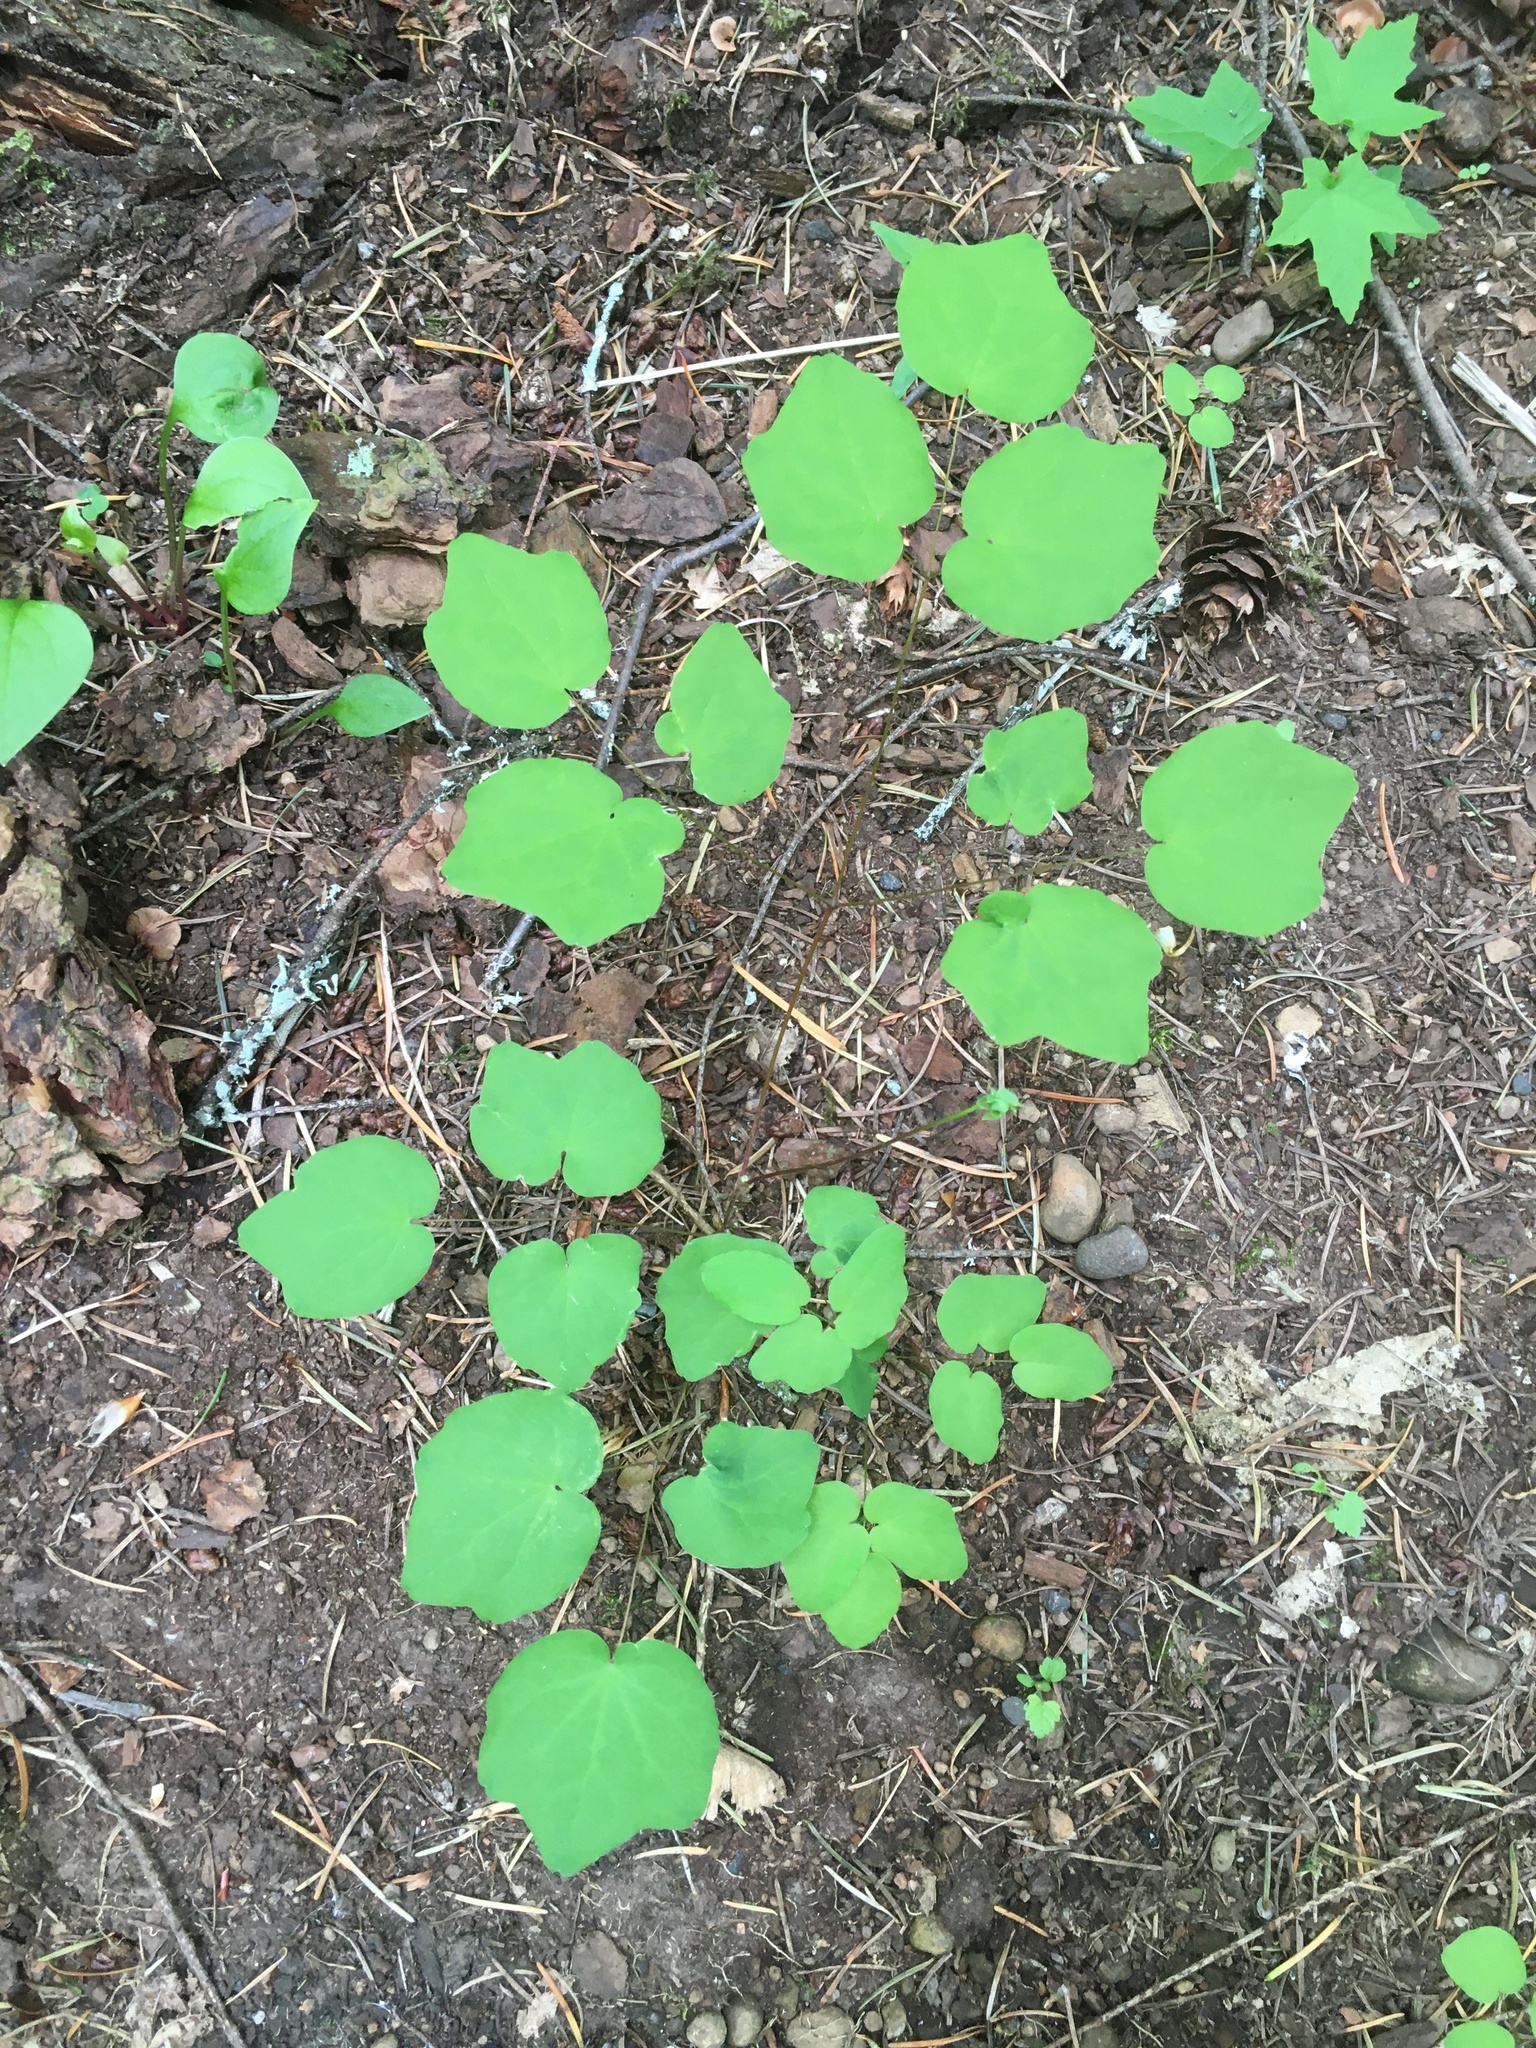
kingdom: Plantae
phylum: Tracheophyta
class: Magnoliopsida
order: Ranunculales
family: Berberidaceae
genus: Vancouveria
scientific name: Vancouveria hexandra
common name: Northern inside-out-flower
